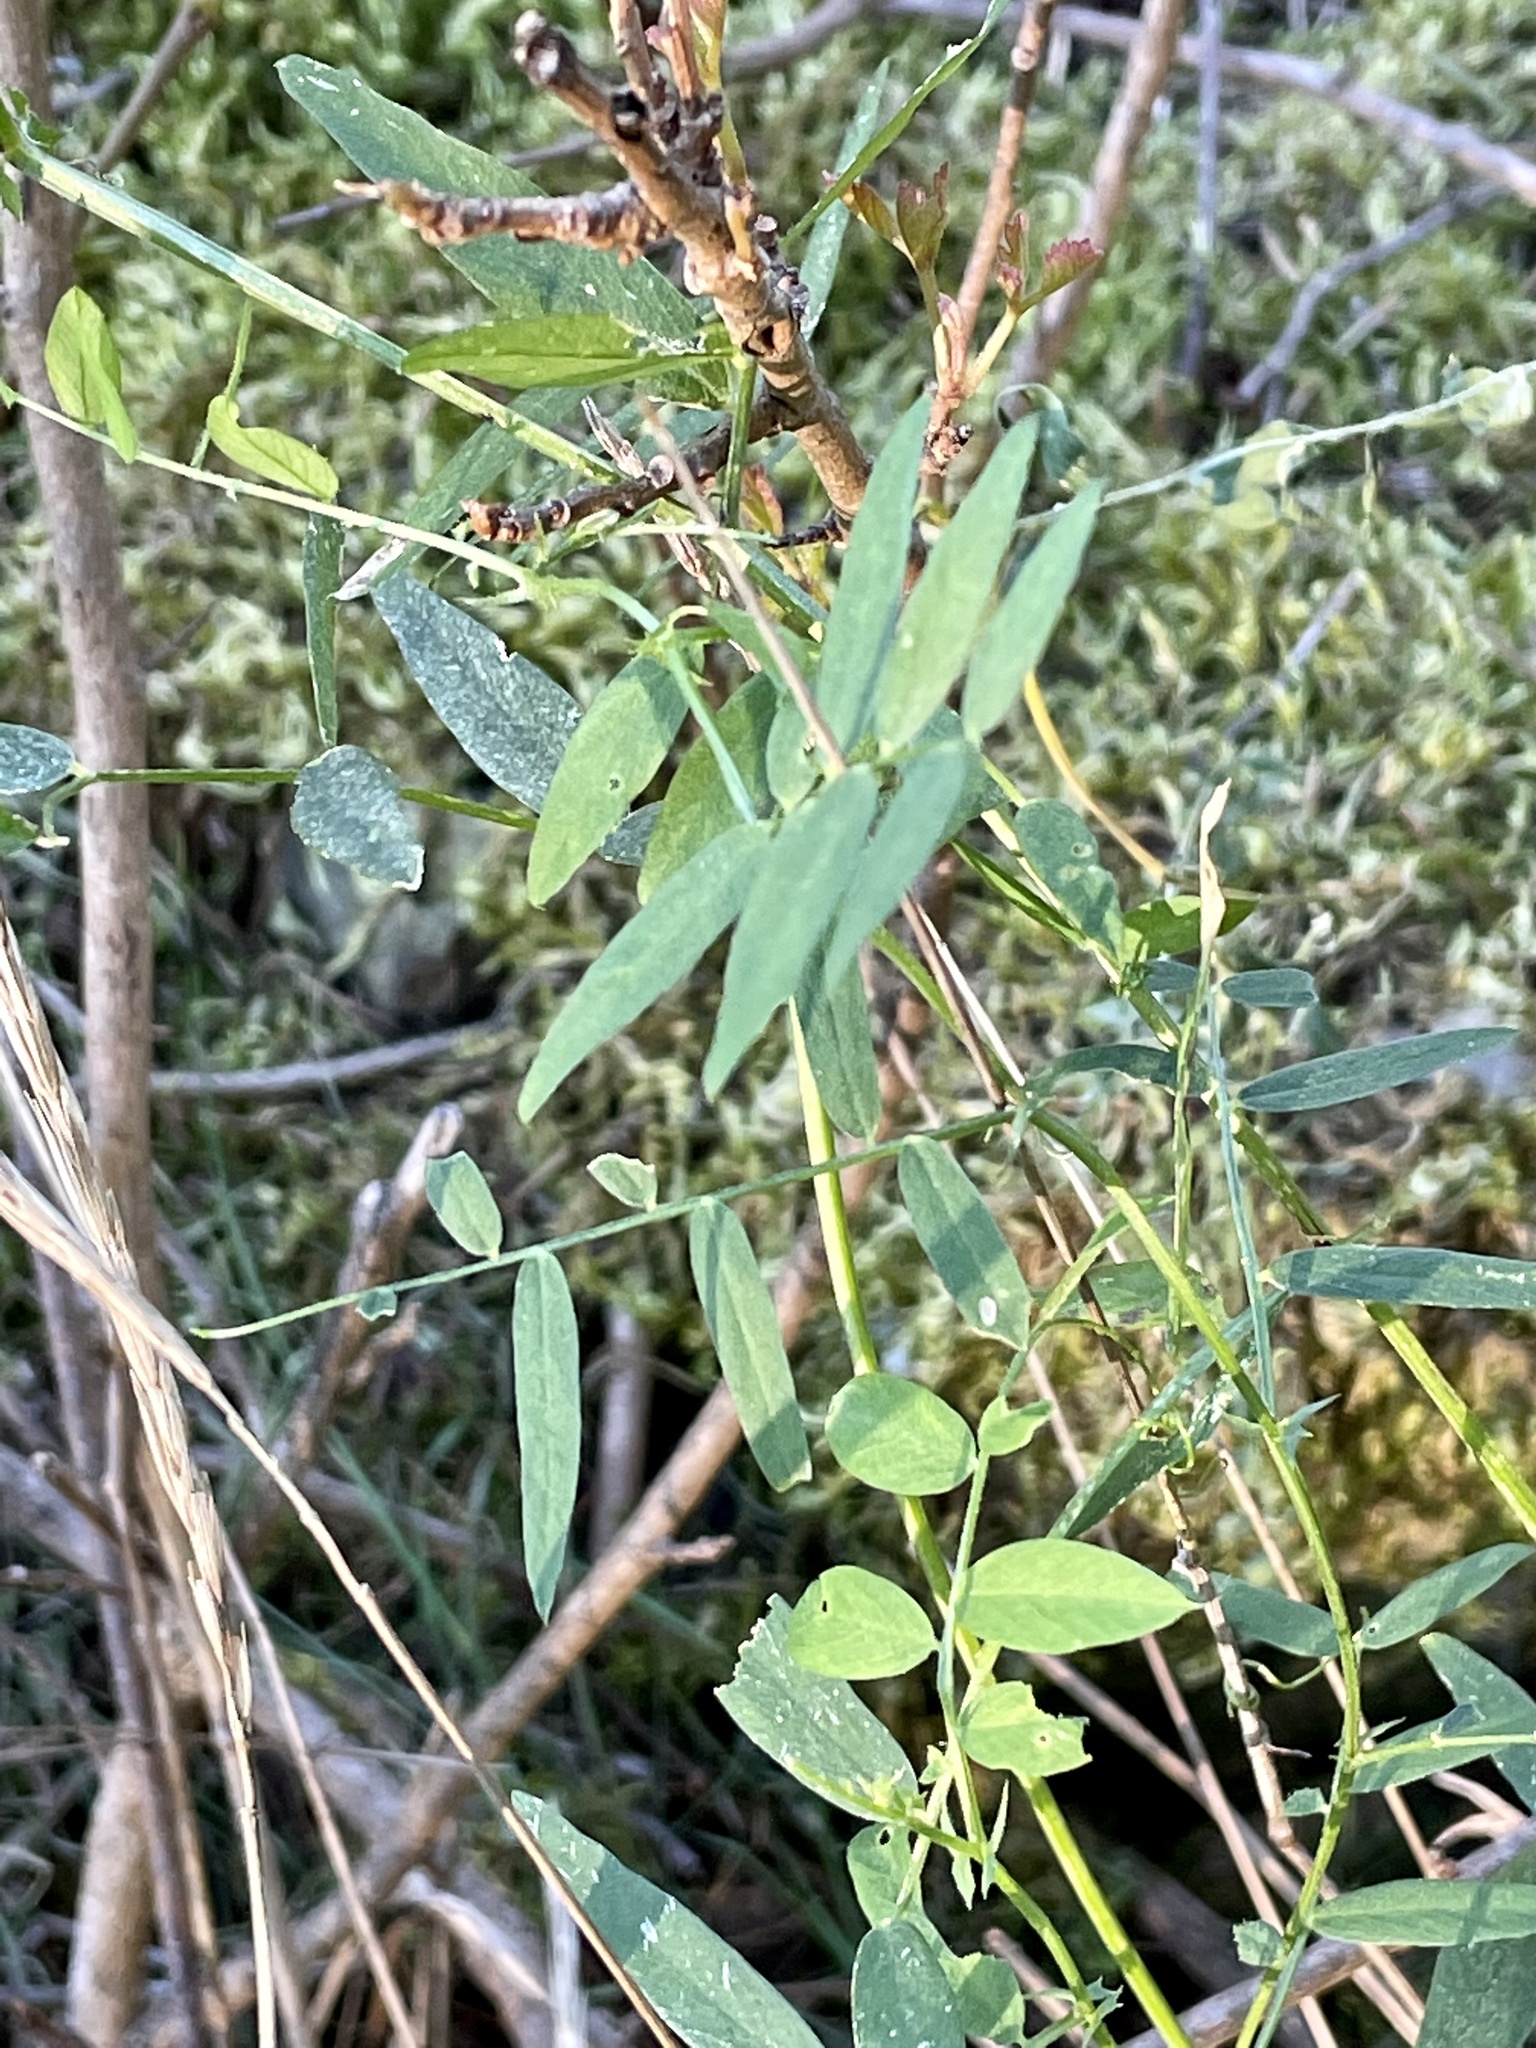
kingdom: Plantae
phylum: Tracheophyta
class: Magnoliopsida
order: Fabales
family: Fabaceae
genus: Vicia
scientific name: Vicia americana
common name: American vetch
